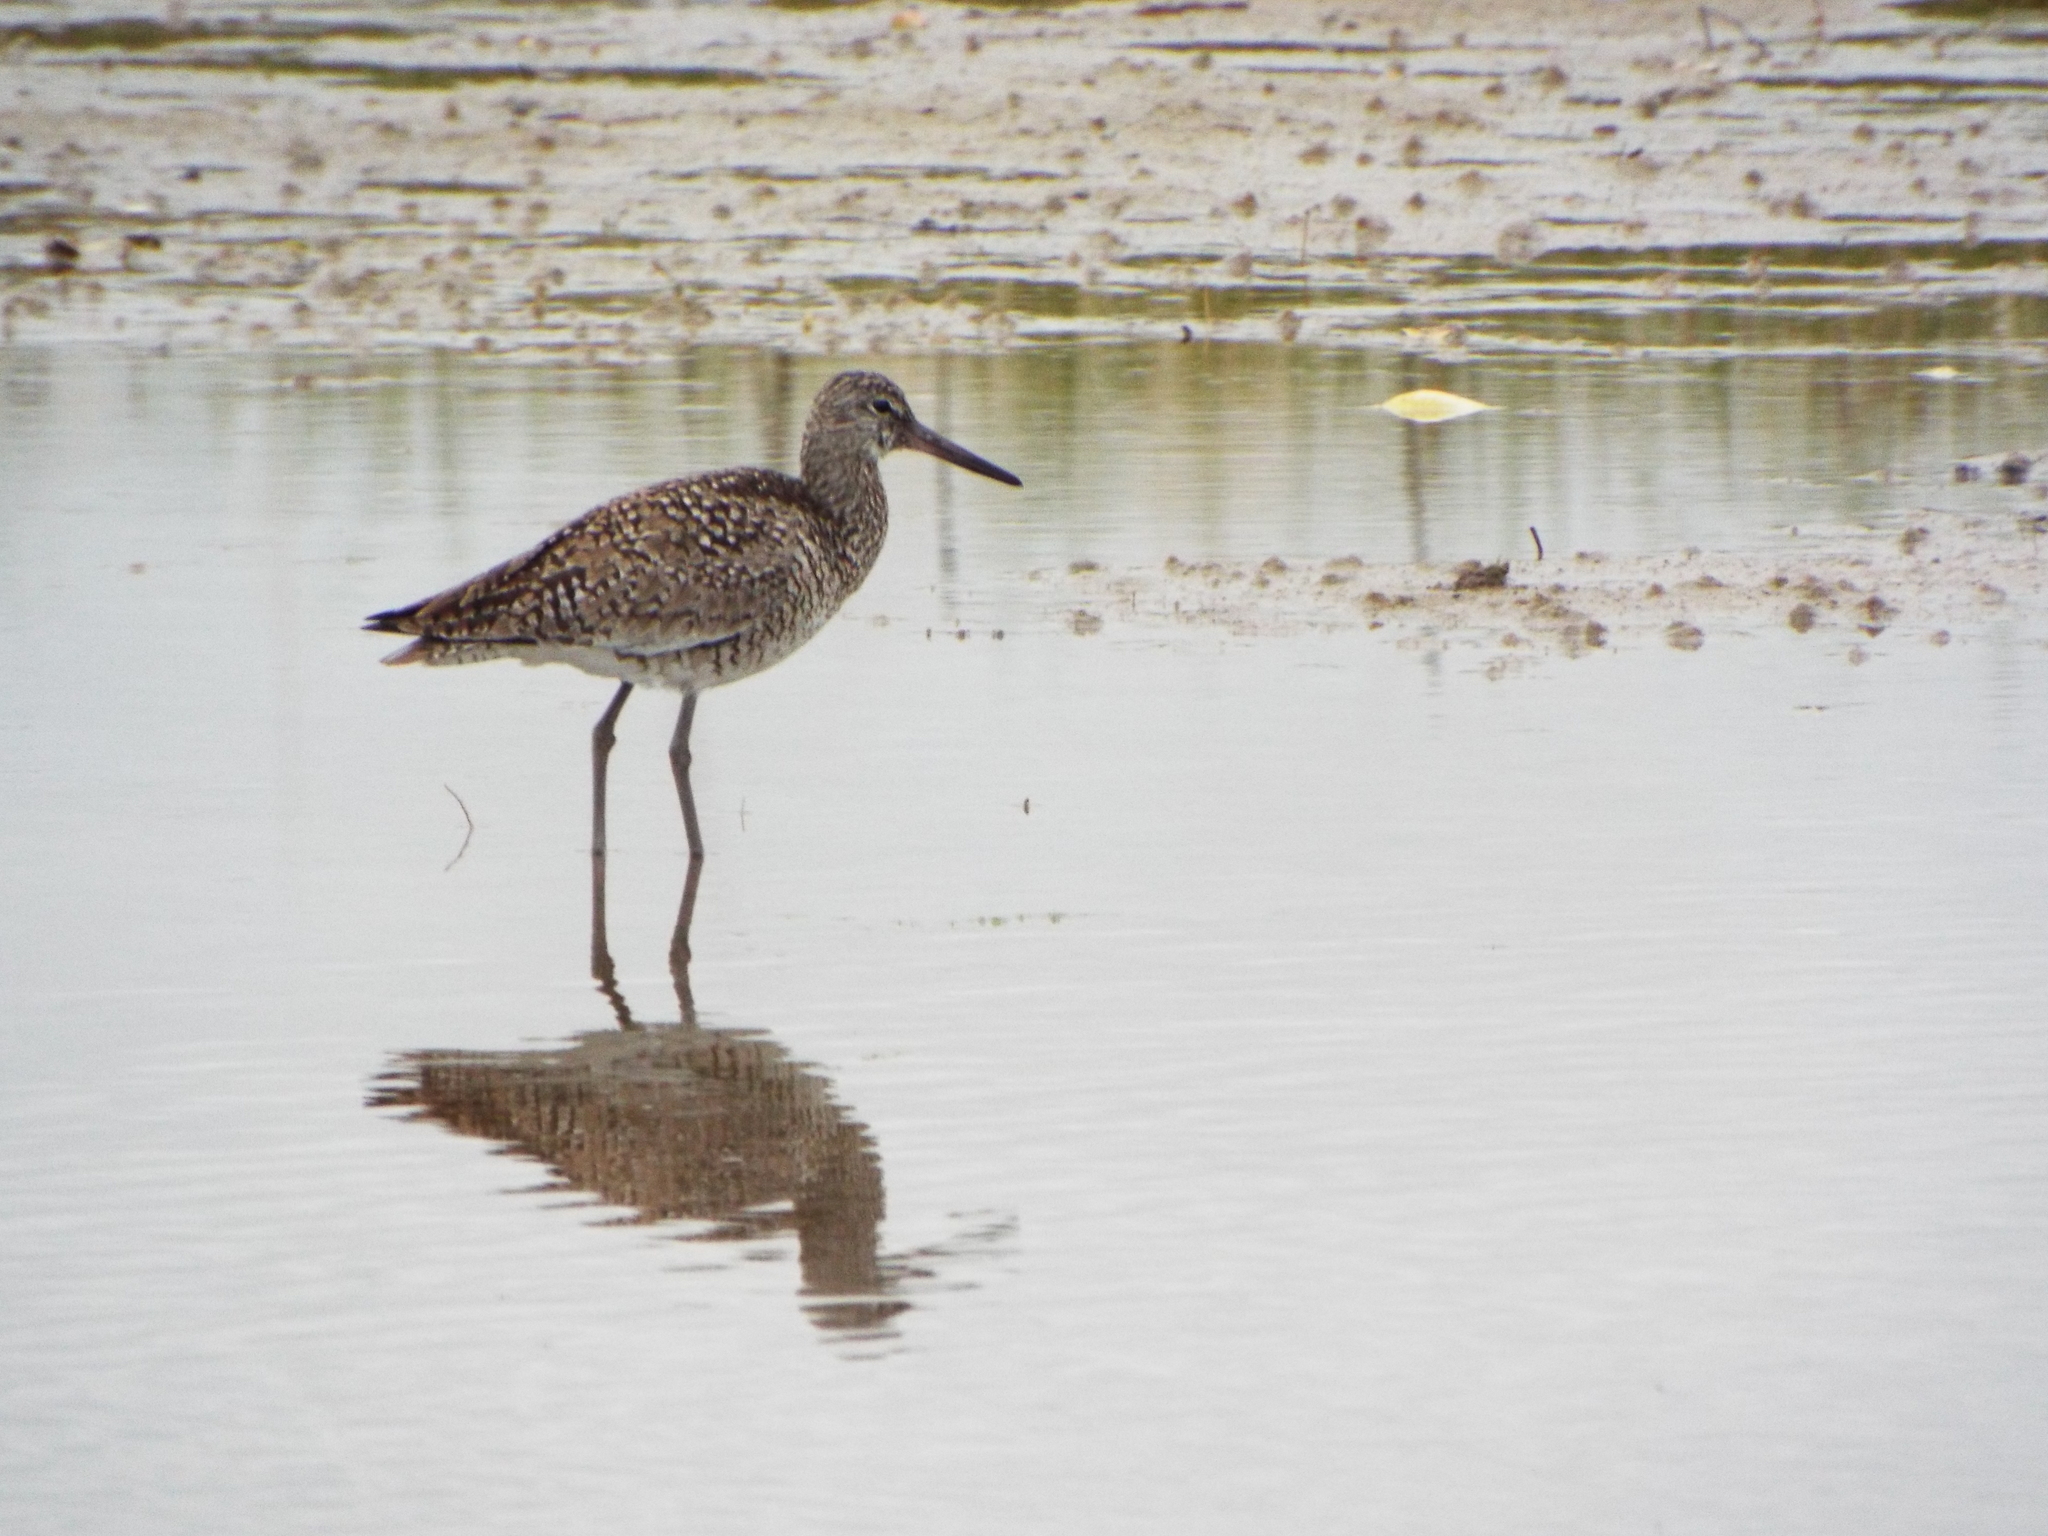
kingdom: Animalia
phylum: Chordata
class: Aves
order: Charadriiformes
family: Scolopacidae
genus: Tringa
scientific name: Tringa semipalmata
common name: Willet
